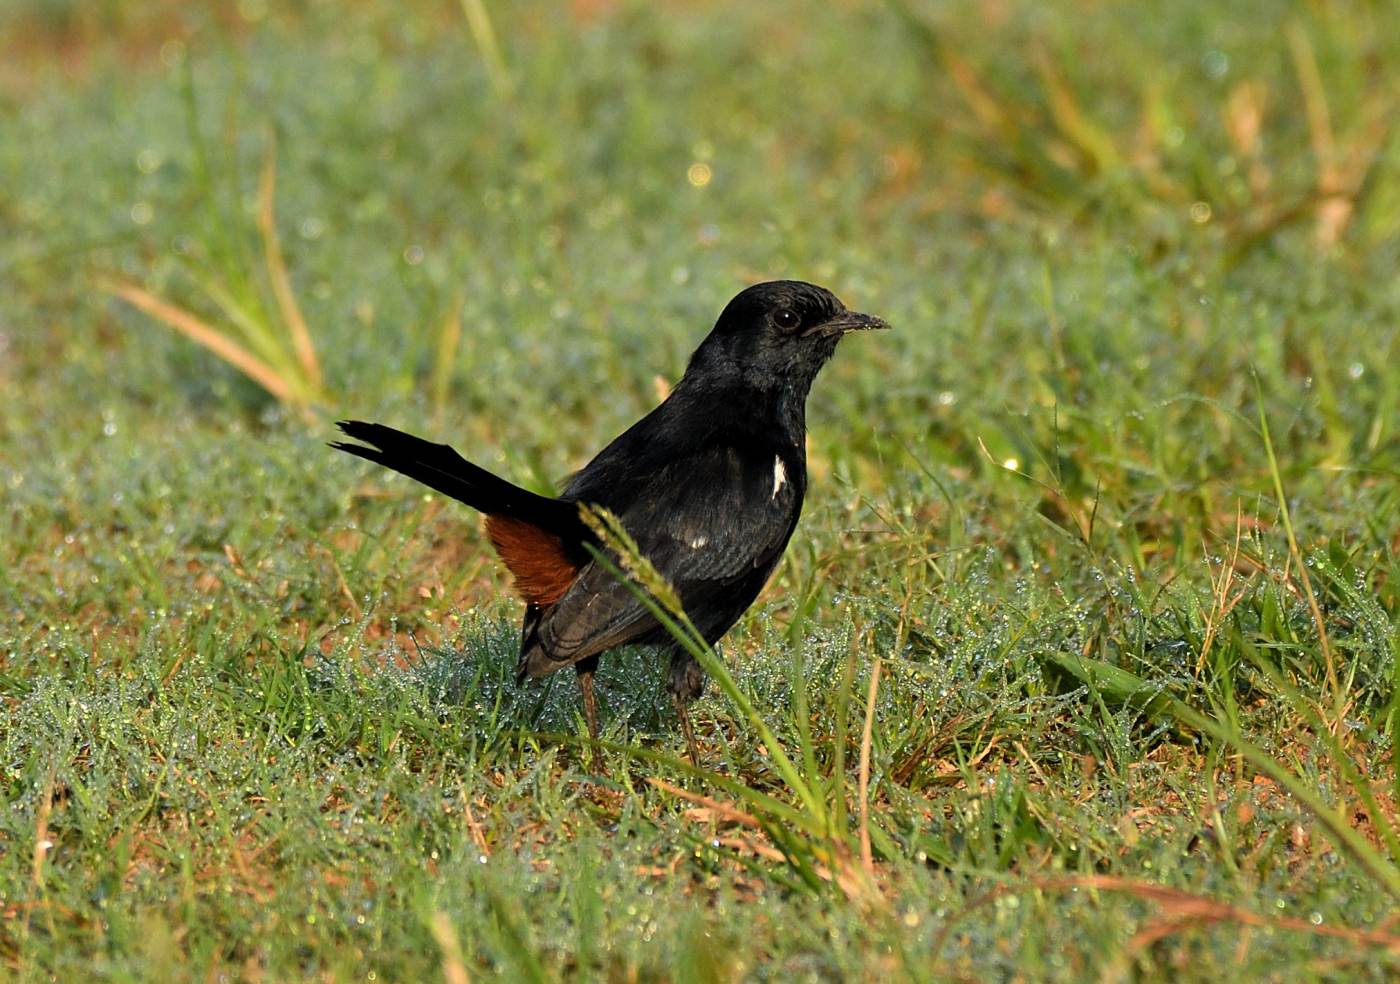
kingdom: Animalia
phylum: Chordata
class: Aves
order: Passeriformes
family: Muscicapidae
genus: Saxicoloides
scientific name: Saxicoloides fulicatus
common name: Indian robin
